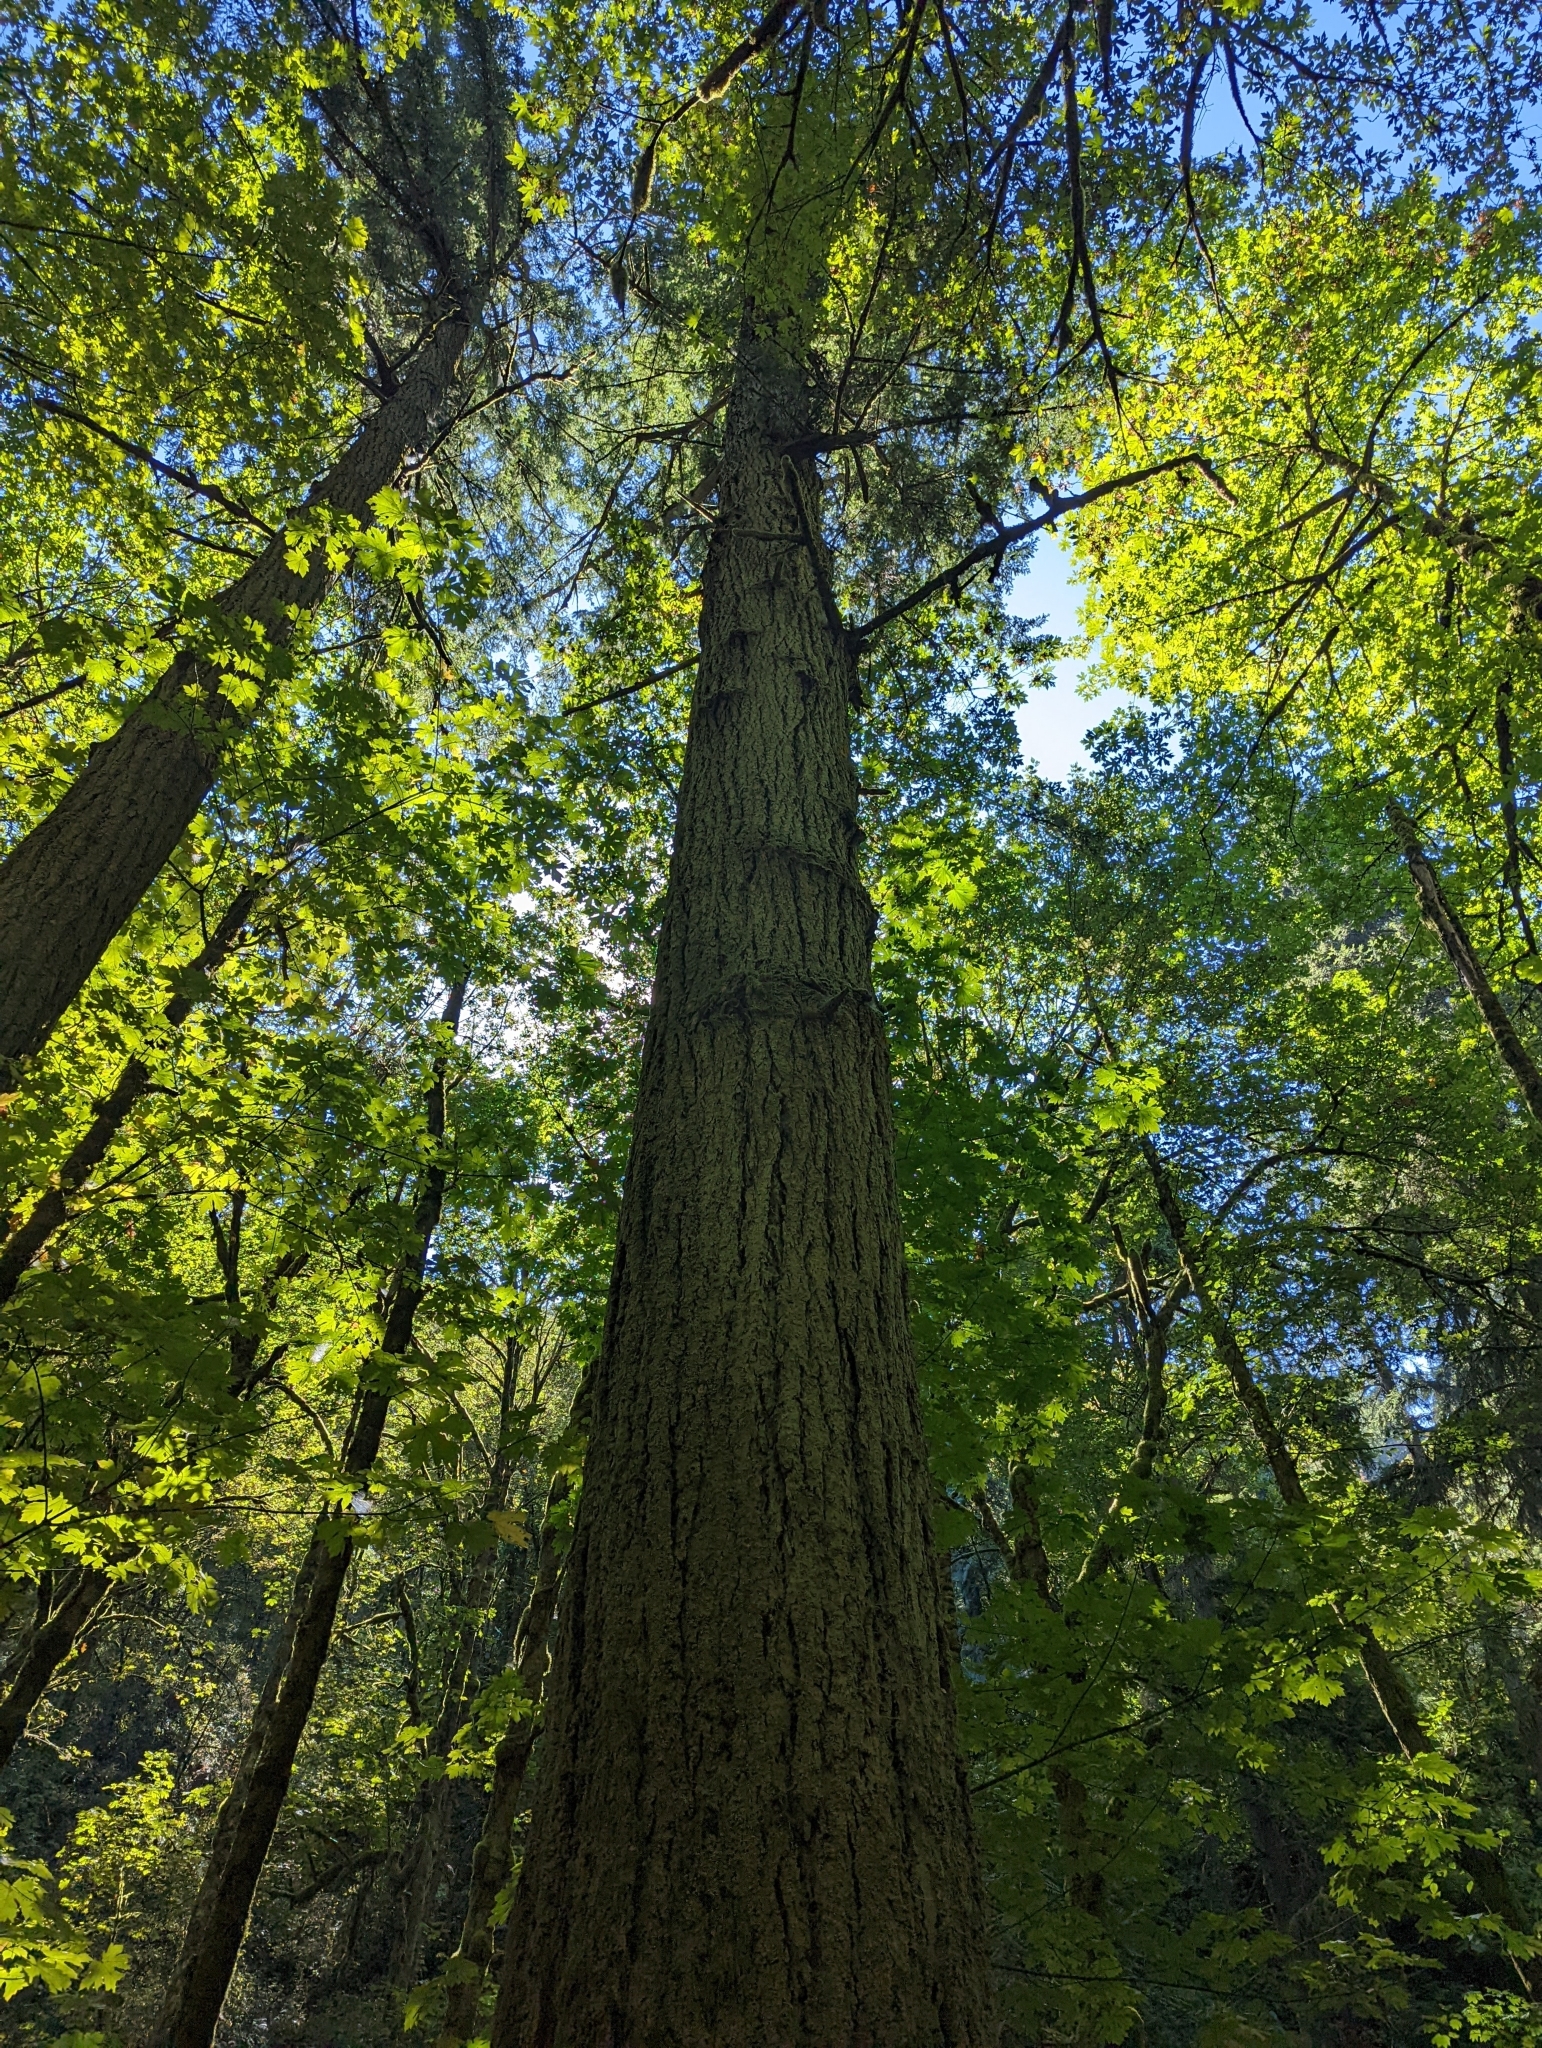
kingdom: Plantae
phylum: Tracheophyta
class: Pinopsida
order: Pinales
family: Pinaceae
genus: Pseudotsuga
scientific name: Pseudotsuga menziesii
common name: Douglas fir
